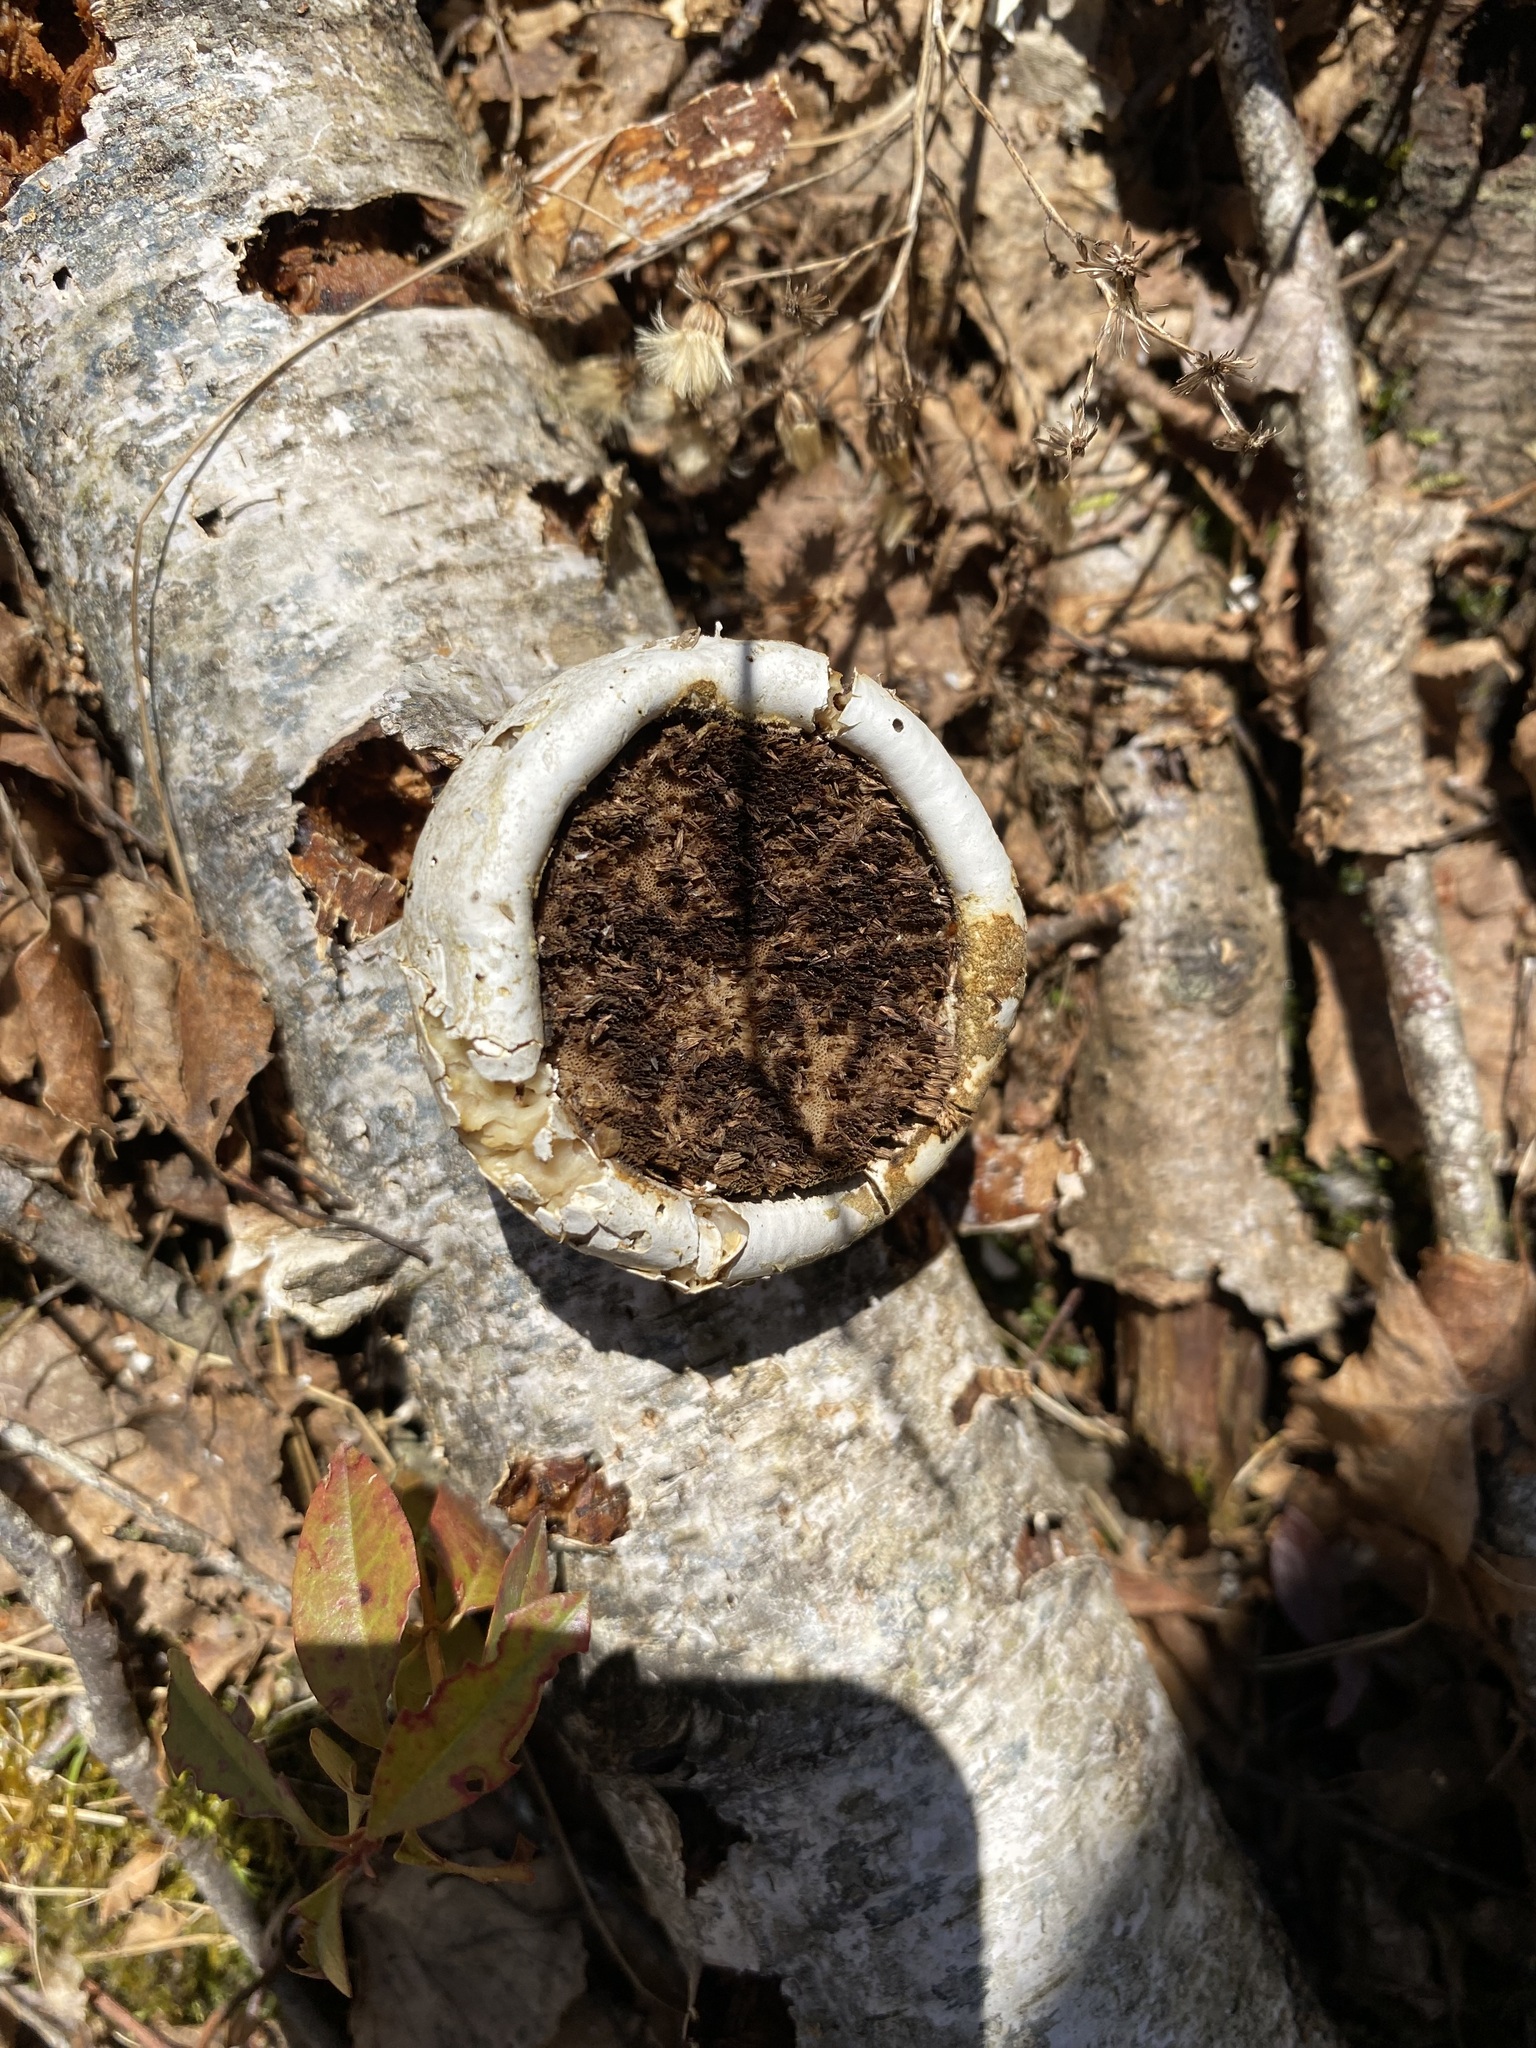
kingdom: Fungi
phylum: Basidiomycota
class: Agaricomycetes
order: Polyporales
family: Fomitopsidaceae
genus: Fomitopsis
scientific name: Fomitopsis betulina
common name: Birch polypore
